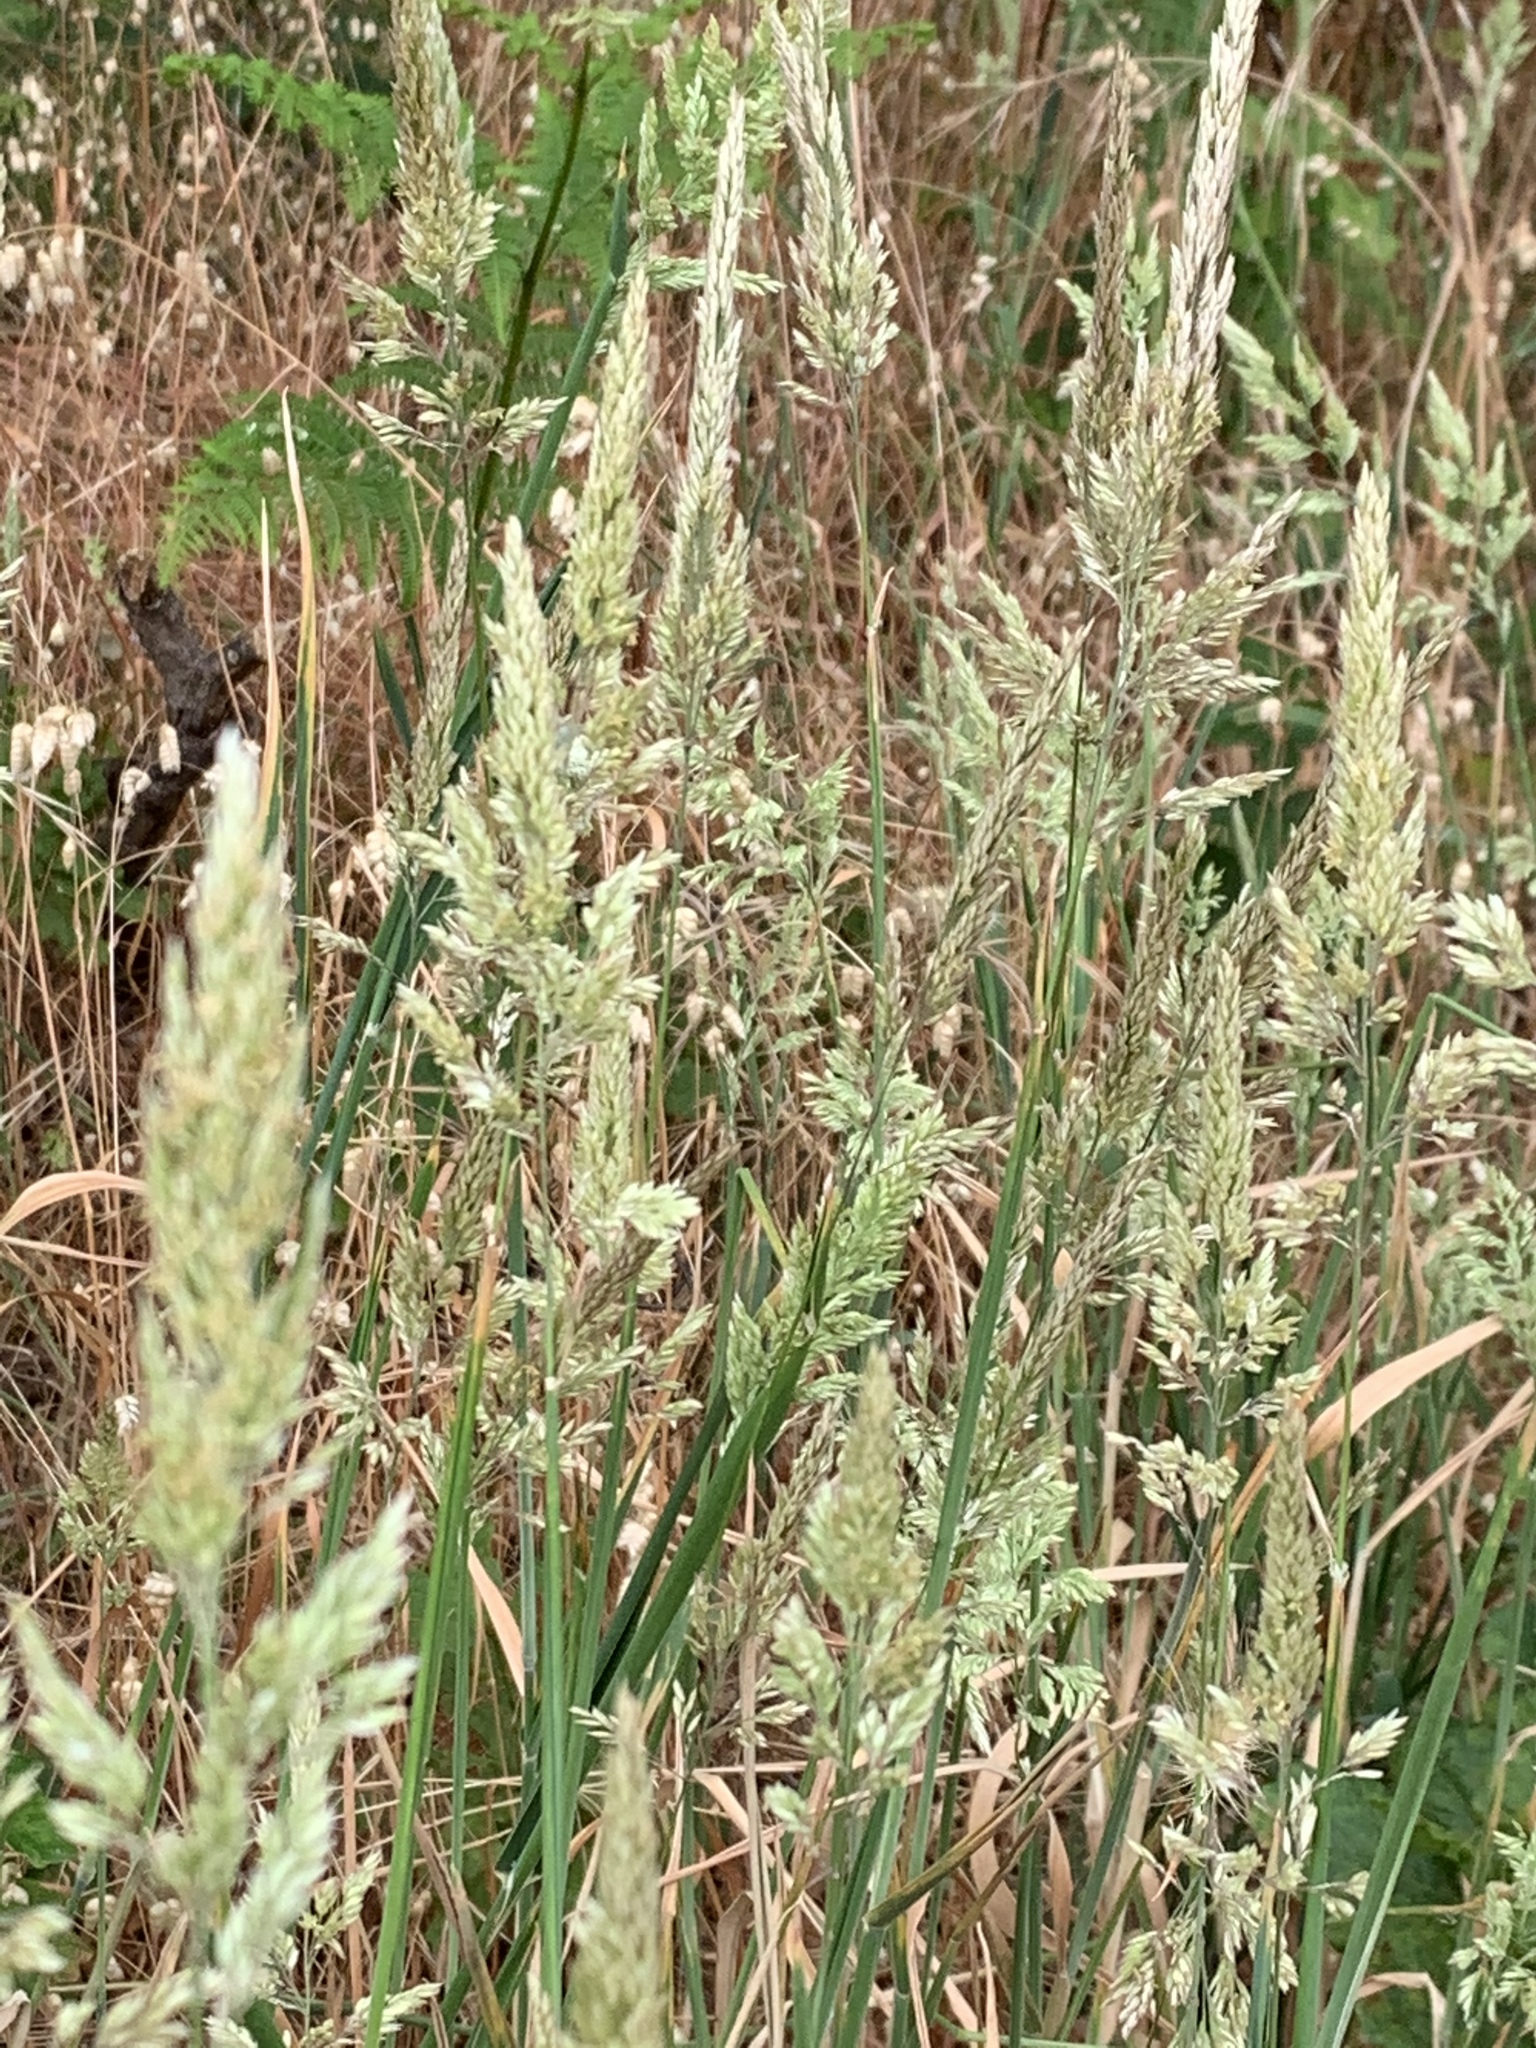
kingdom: Plantae
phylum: Tracheophyta
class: Liliopsida
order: Poales
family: Poaceae
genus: Holcus
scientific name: Holcus lanatus
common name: Yorkshire-fog
